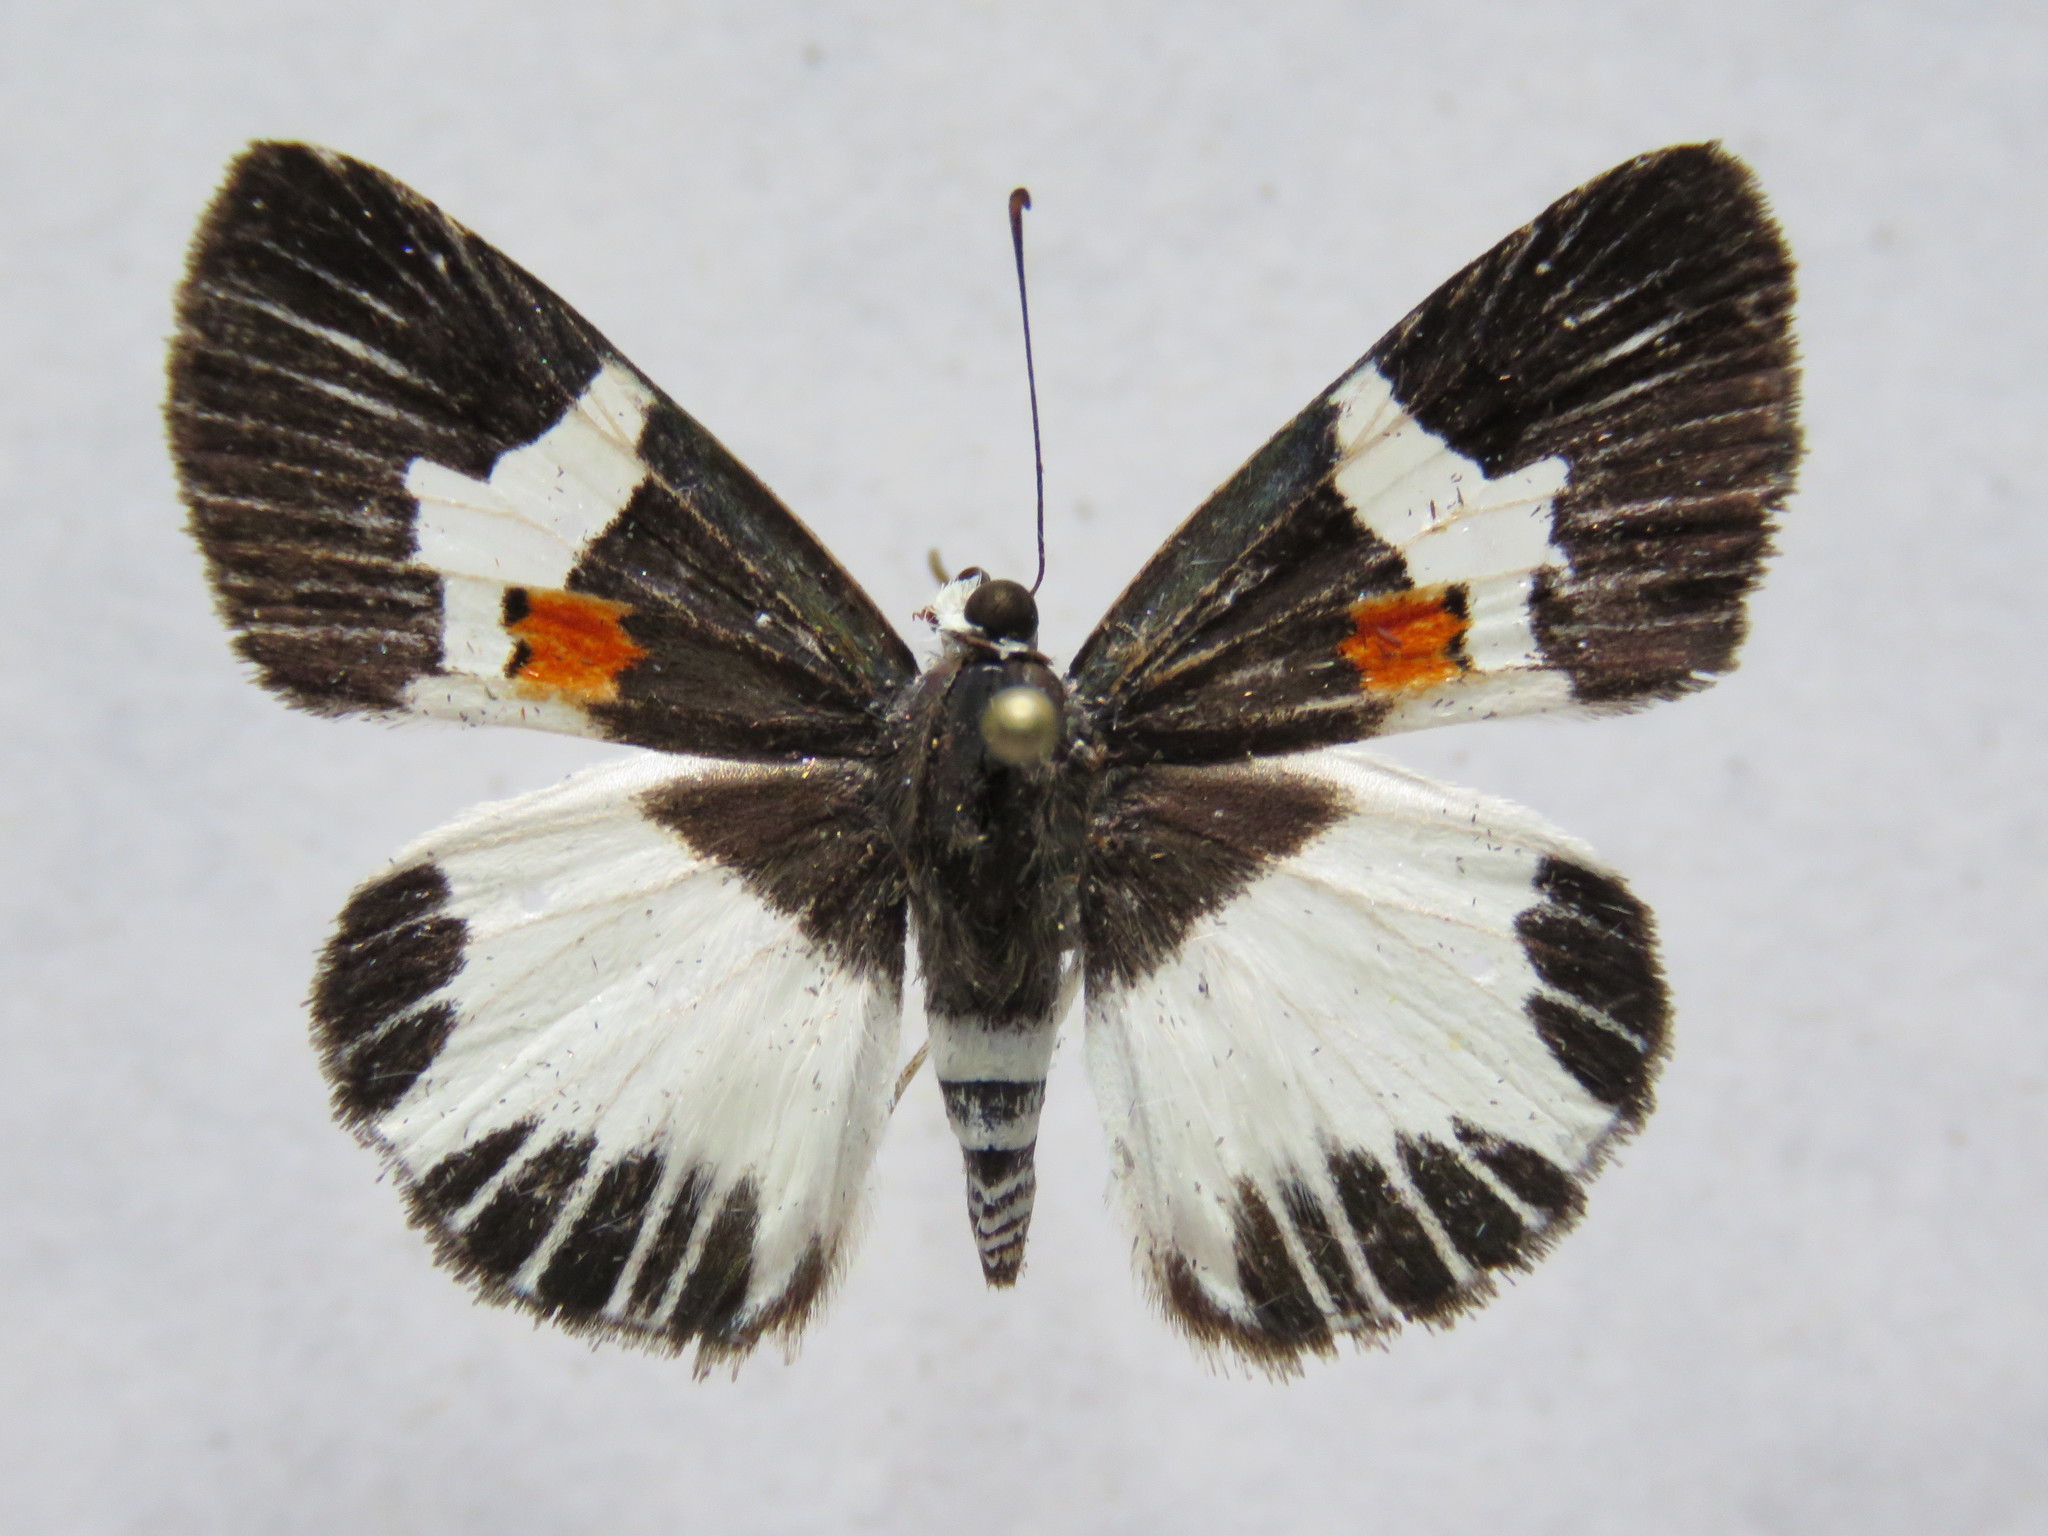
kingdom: Animalia
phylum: Arthropoda
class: Insecta
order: Lepidoptera
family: Hesperiidae
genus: Atarnes
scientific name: Atarnes sallei
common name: Orange-spotted skipper
